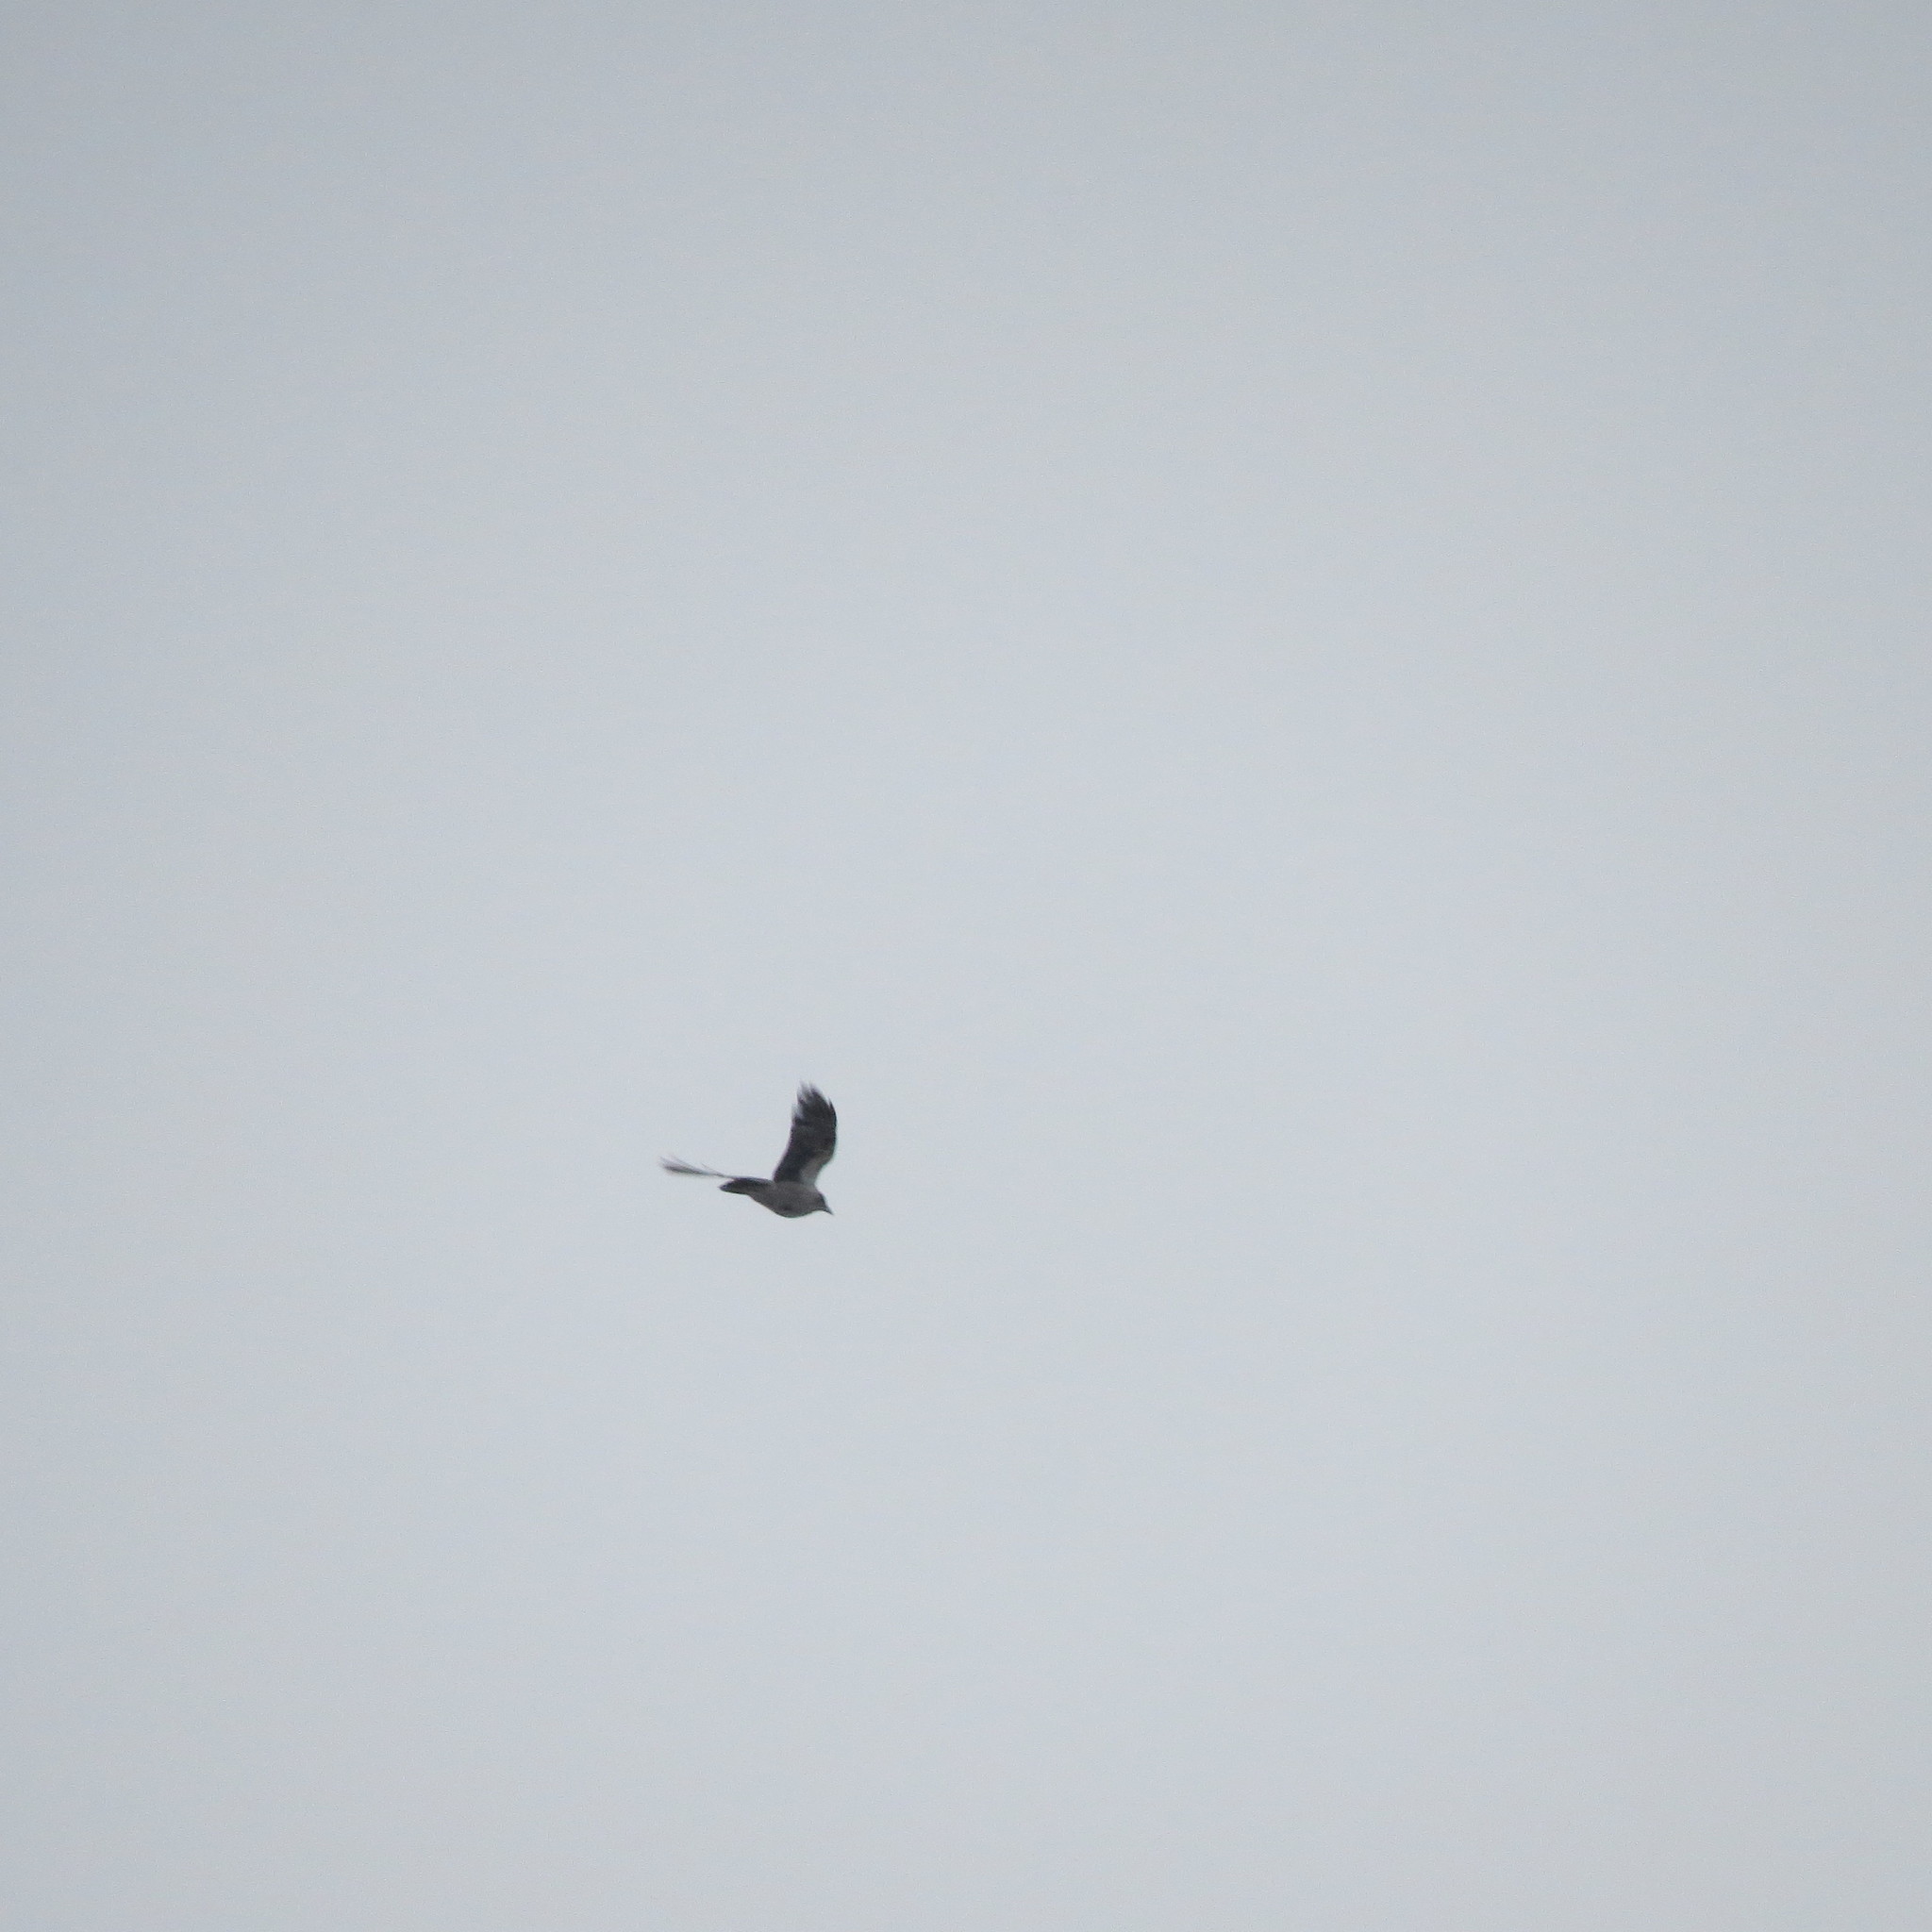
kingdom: Animalia
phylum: Chordata
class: Aves
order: Passeriformes
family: Corvidae
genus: Corvus
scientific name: Corvus cornix
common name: Hooded crow
